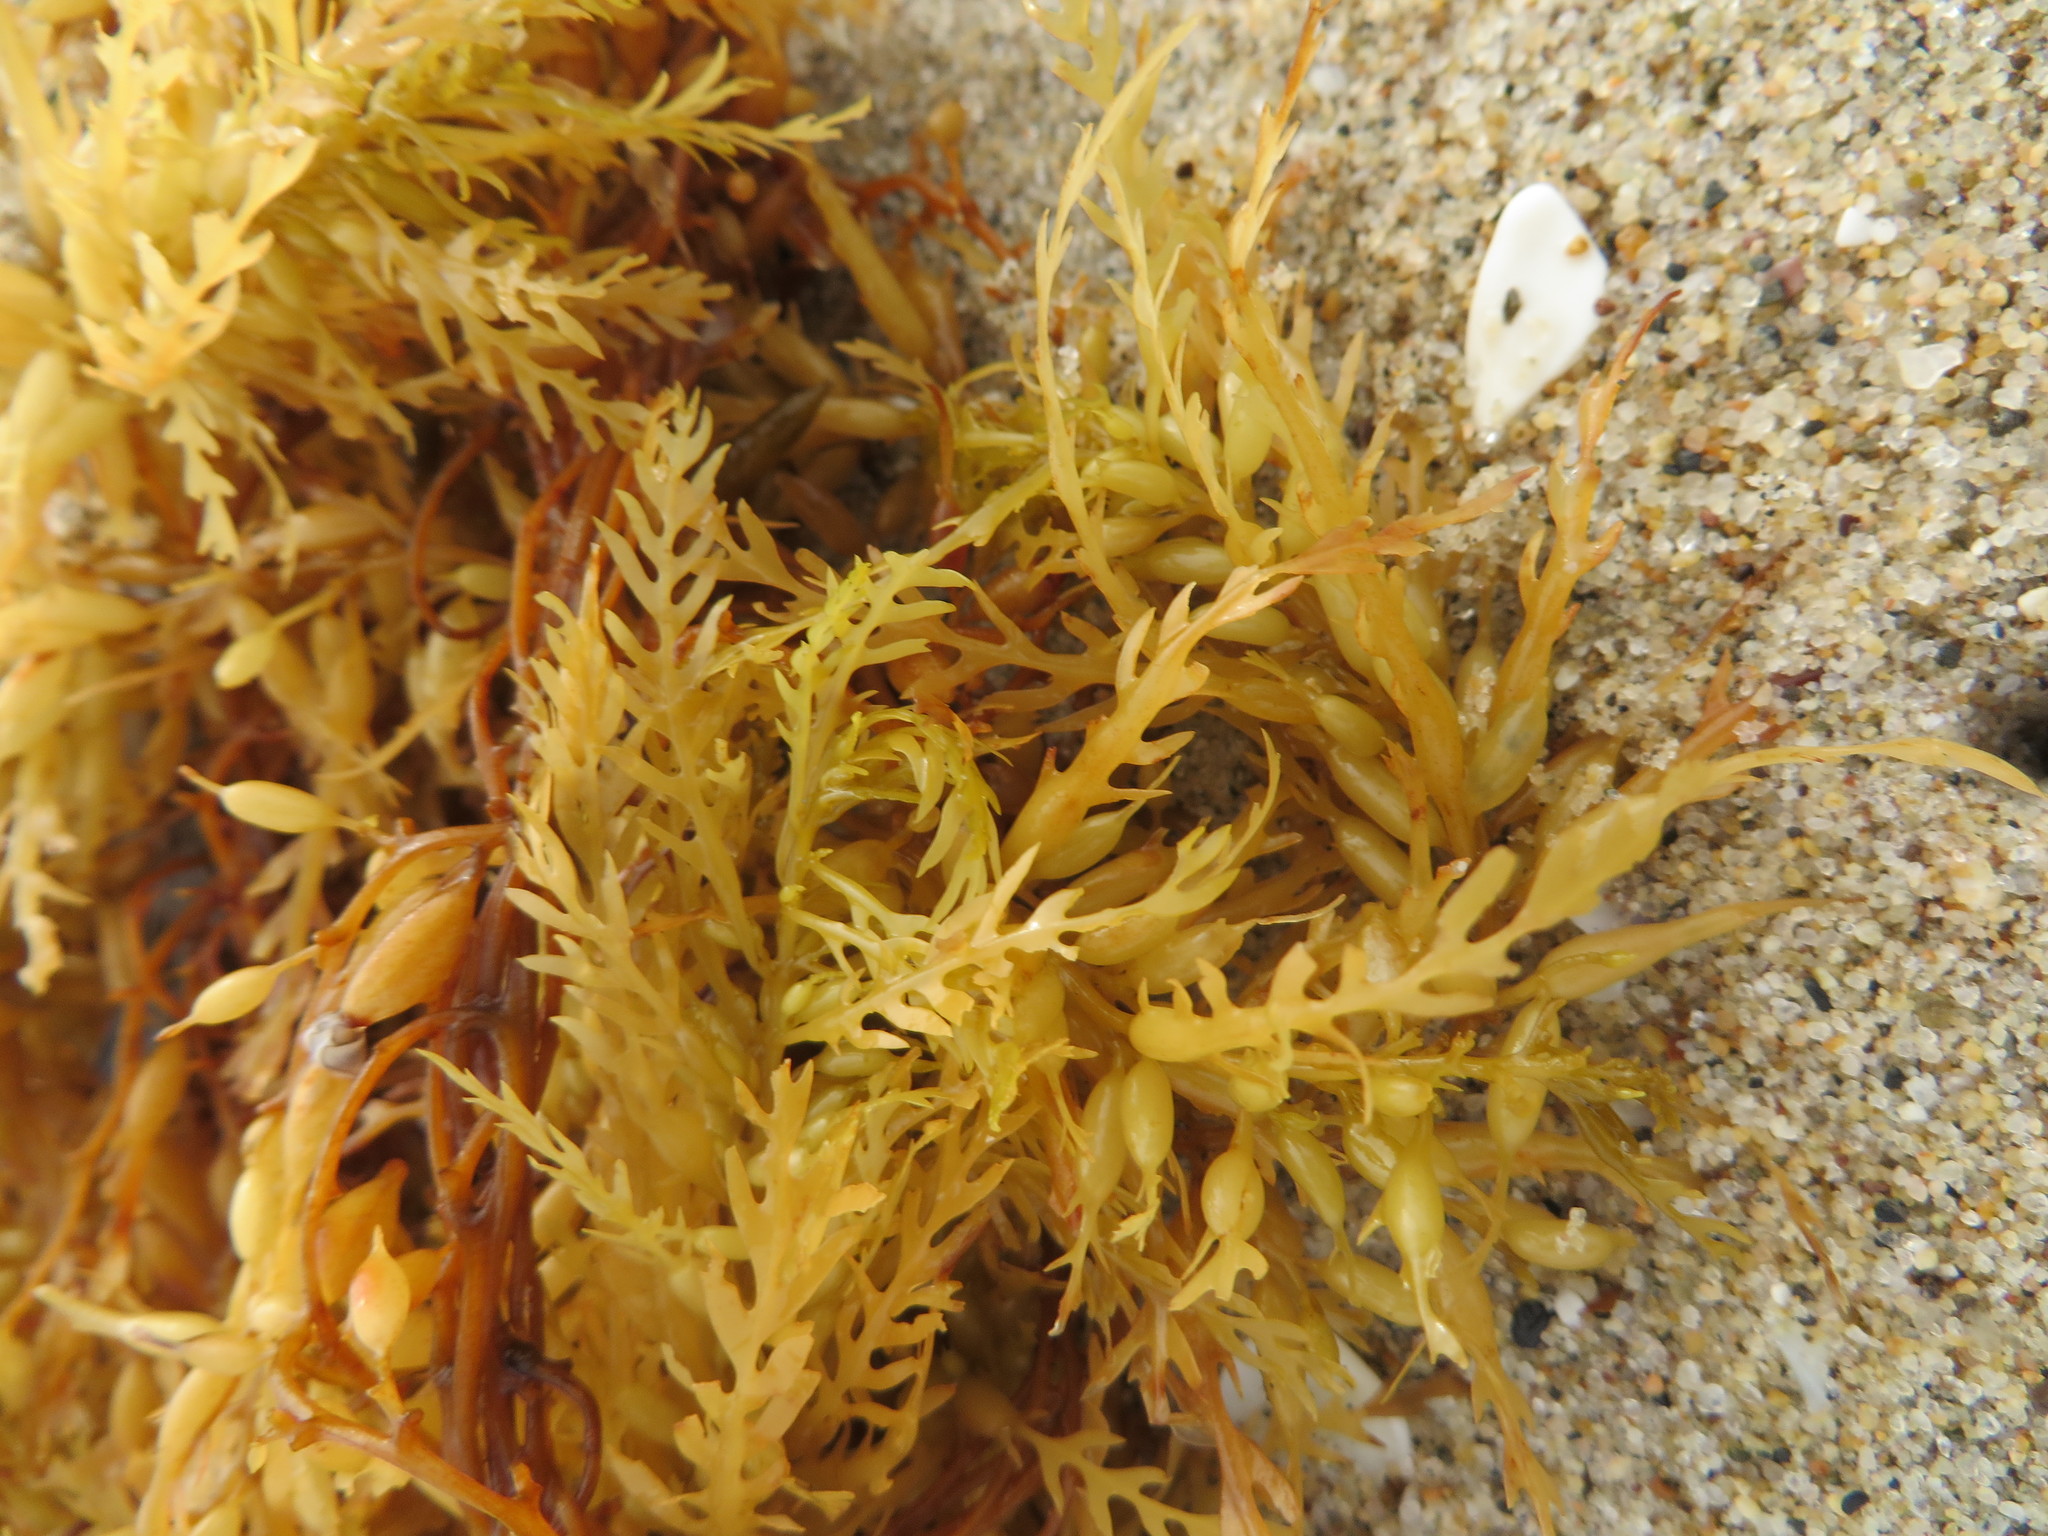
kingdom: Chromista
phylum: Ochrophyta
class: Phaeophyceae
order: Fucales
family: Sargassaceae
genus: Sargassum
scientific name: Sargassum horneri
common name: Devil weed
